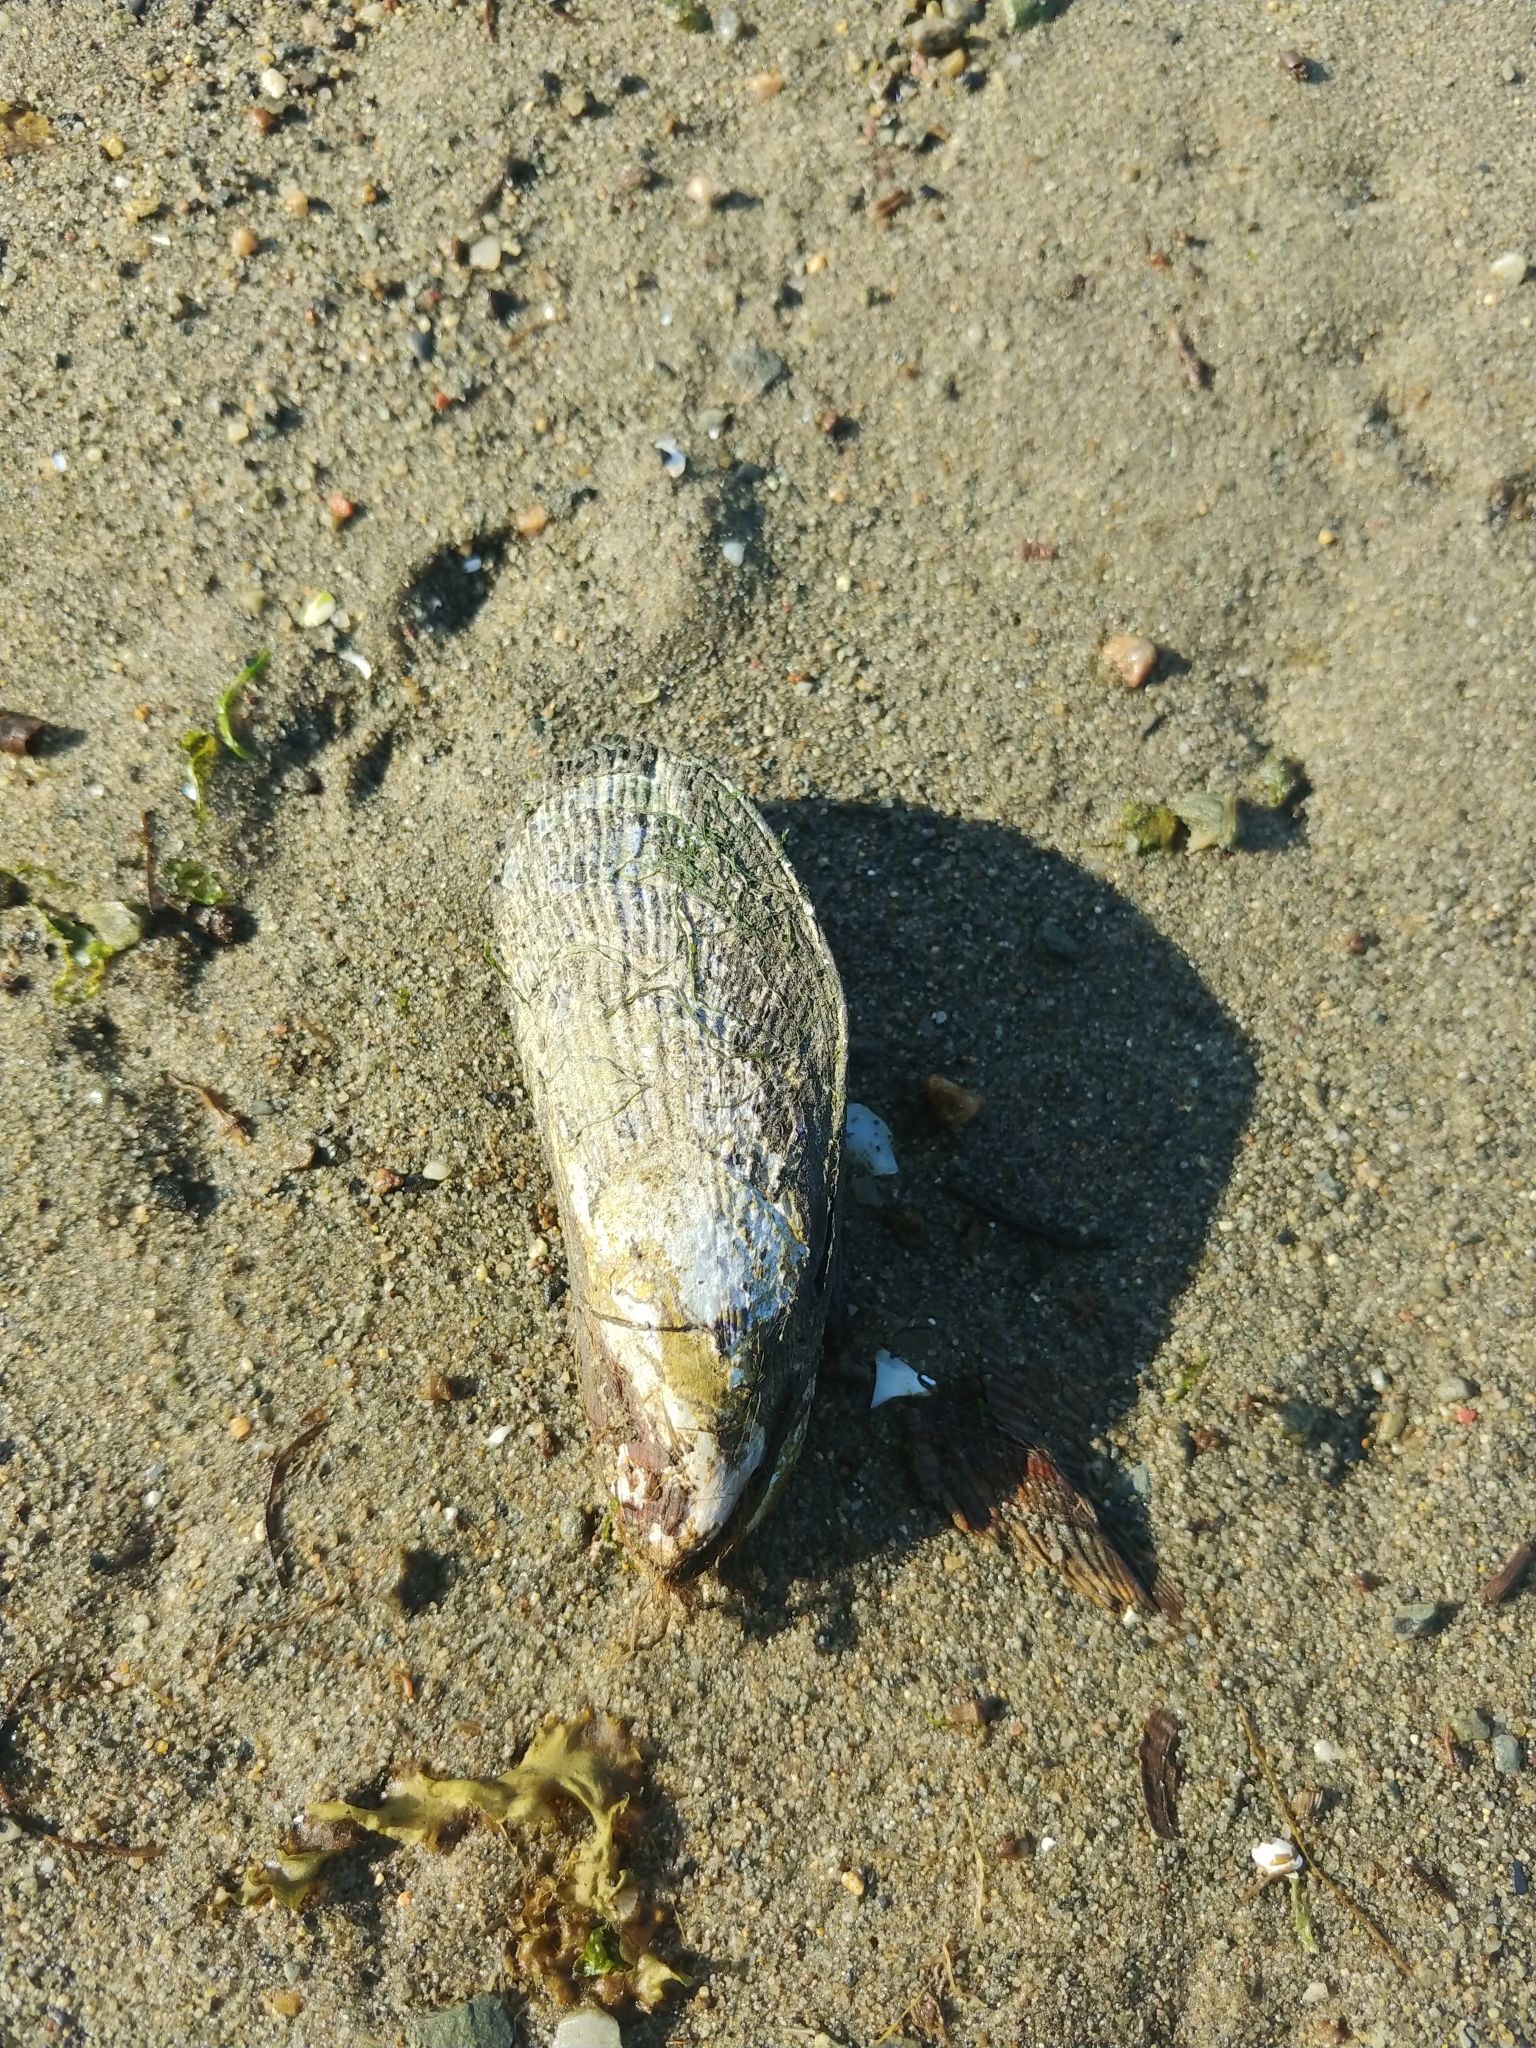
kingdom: Animalia
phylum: Mollusca
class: Bivalvia
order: Mytilida
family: Mytilidae
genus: Geukensia
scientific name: Geukensia demissa
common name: Ribbed mussel
